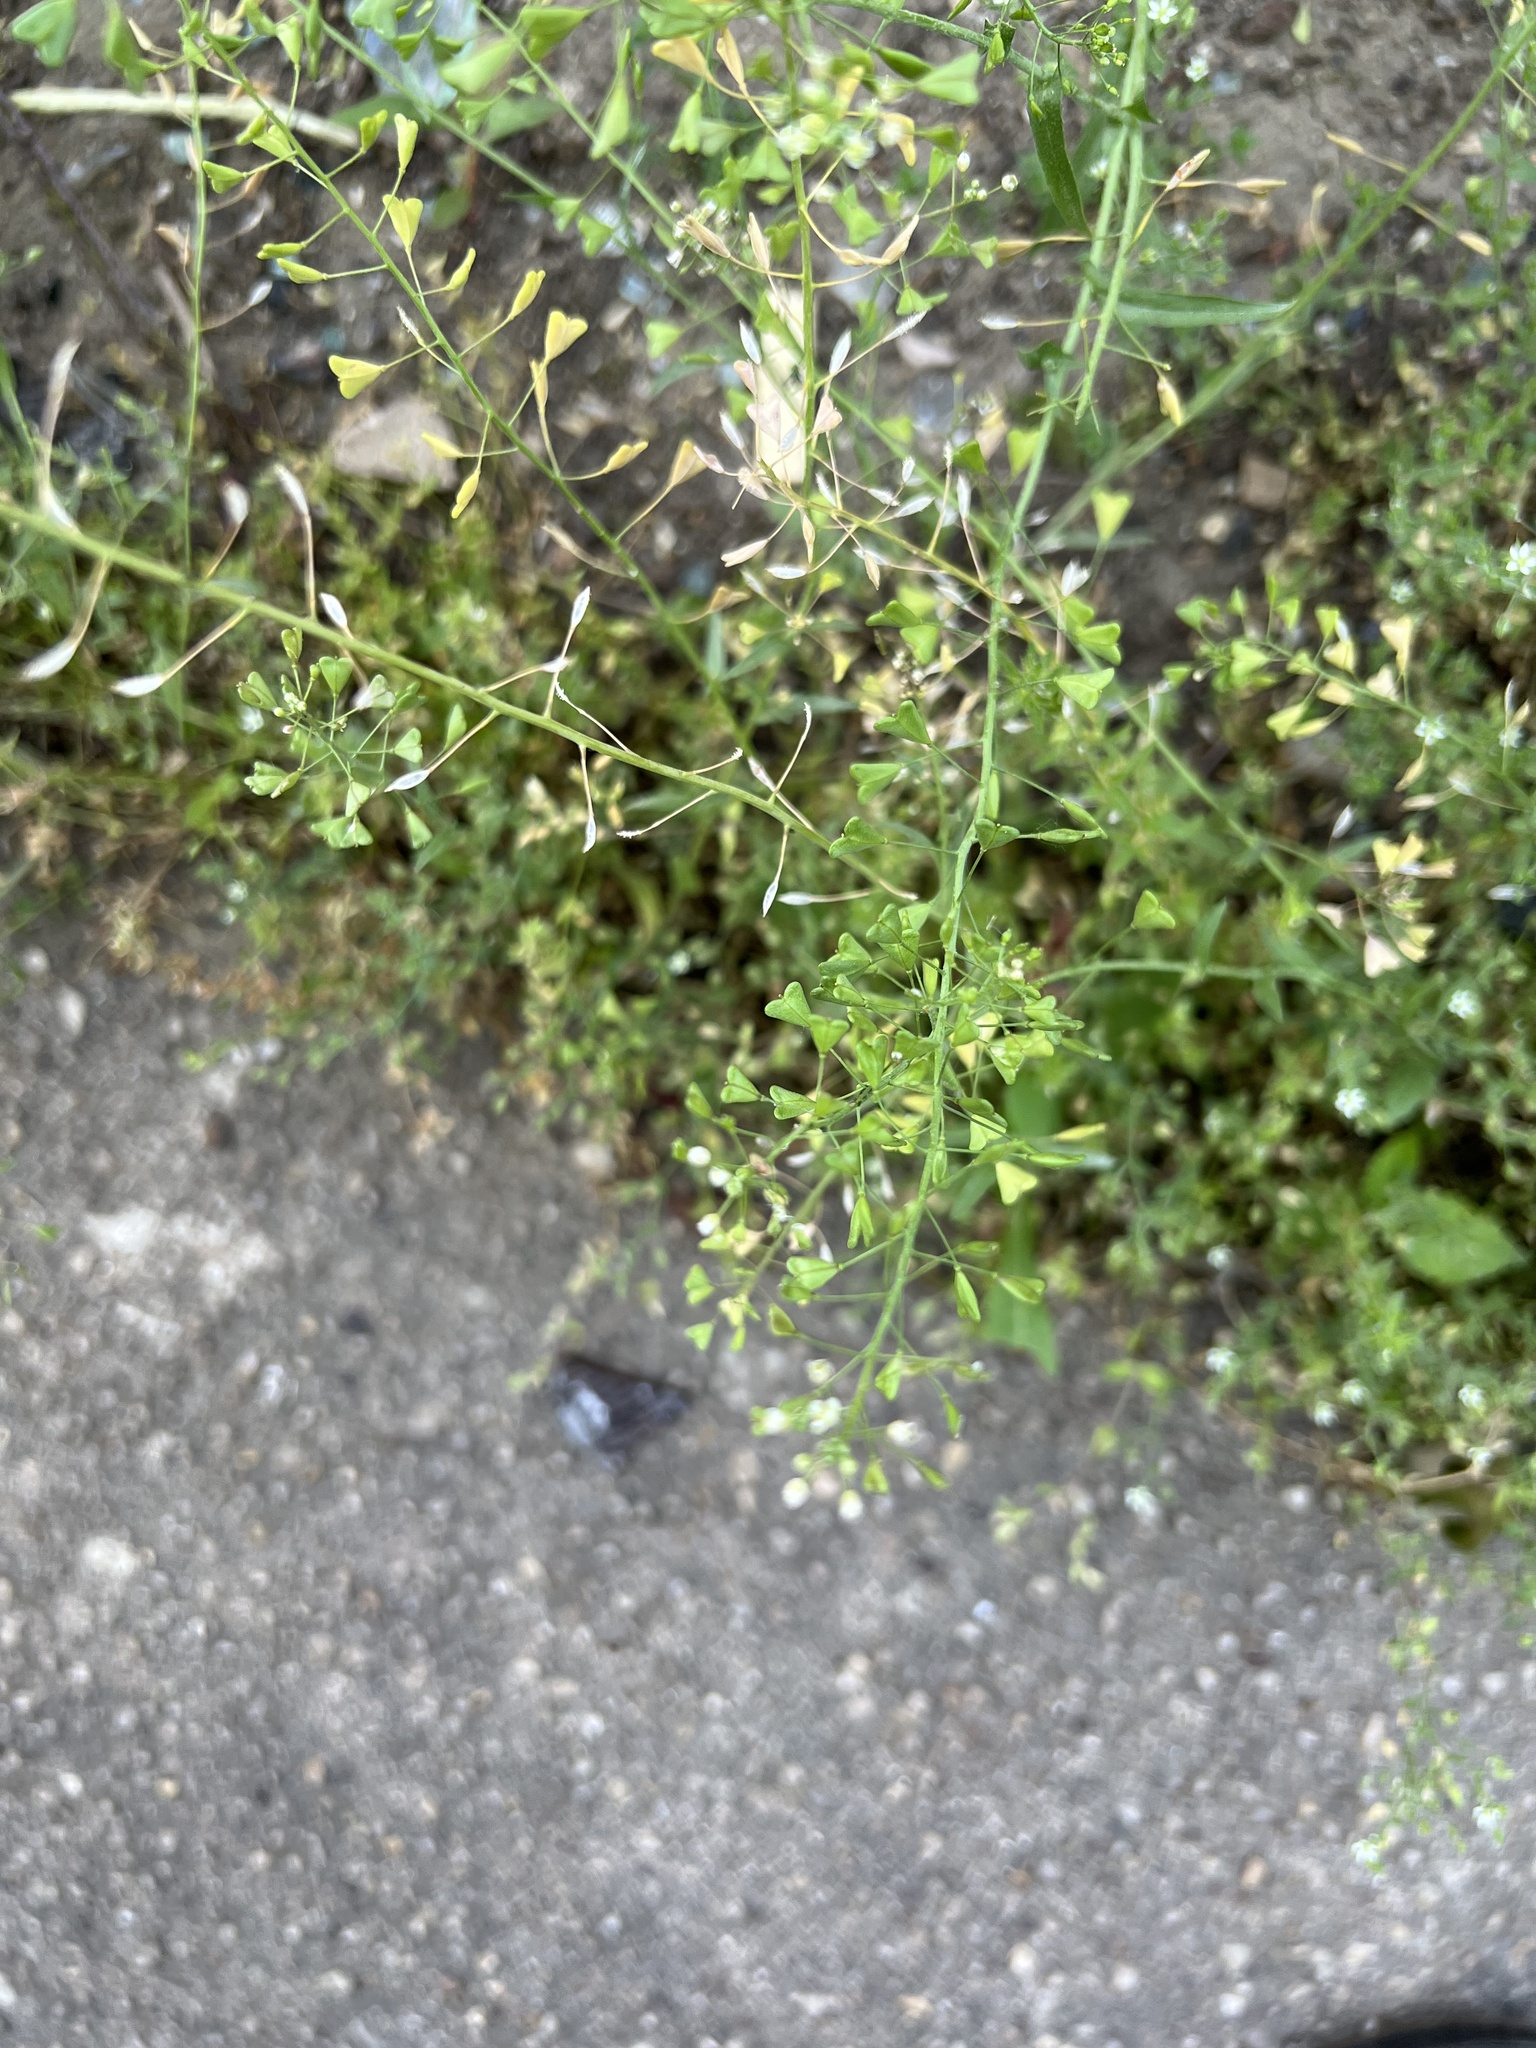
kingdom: Plantae
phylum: Tracheophyta
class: Magnoliopsida
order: Brassicales
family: Brassicaceae
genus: Capsella
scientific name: Capsella bursa-pastoris
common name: Shepherd's purse
